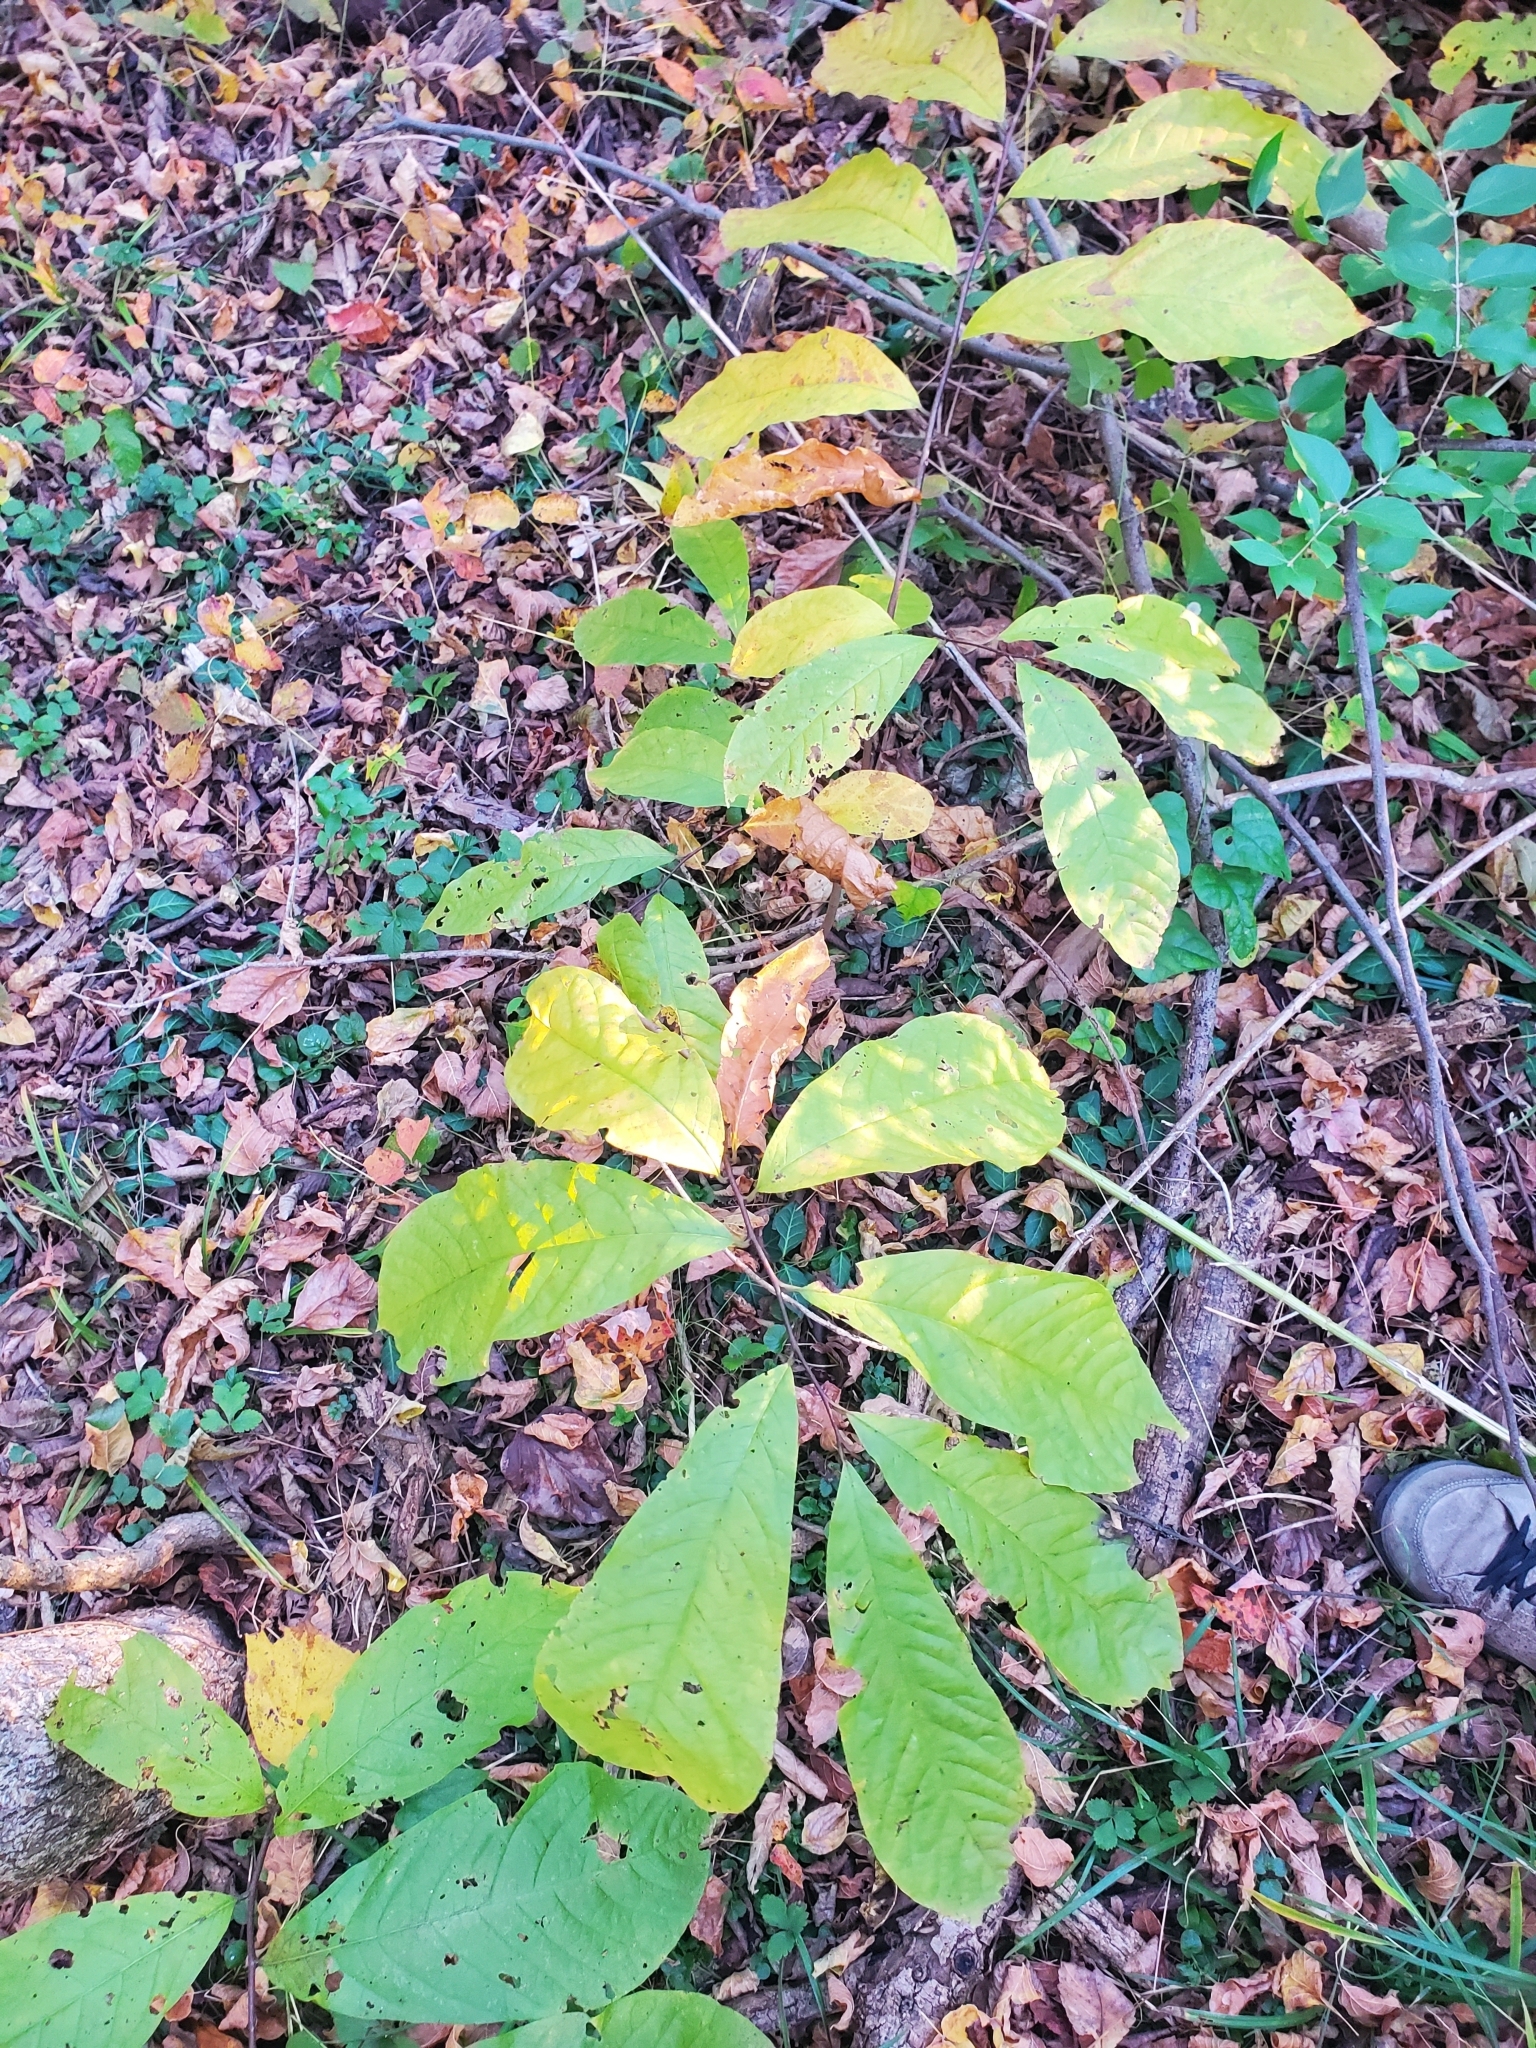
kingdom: Plantae
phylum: Tracheophyta
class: Magnoliopsida
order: Magnoliales
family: Annonaceae
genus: Asimina
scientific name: Asimina triloba
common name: Dog-banana
